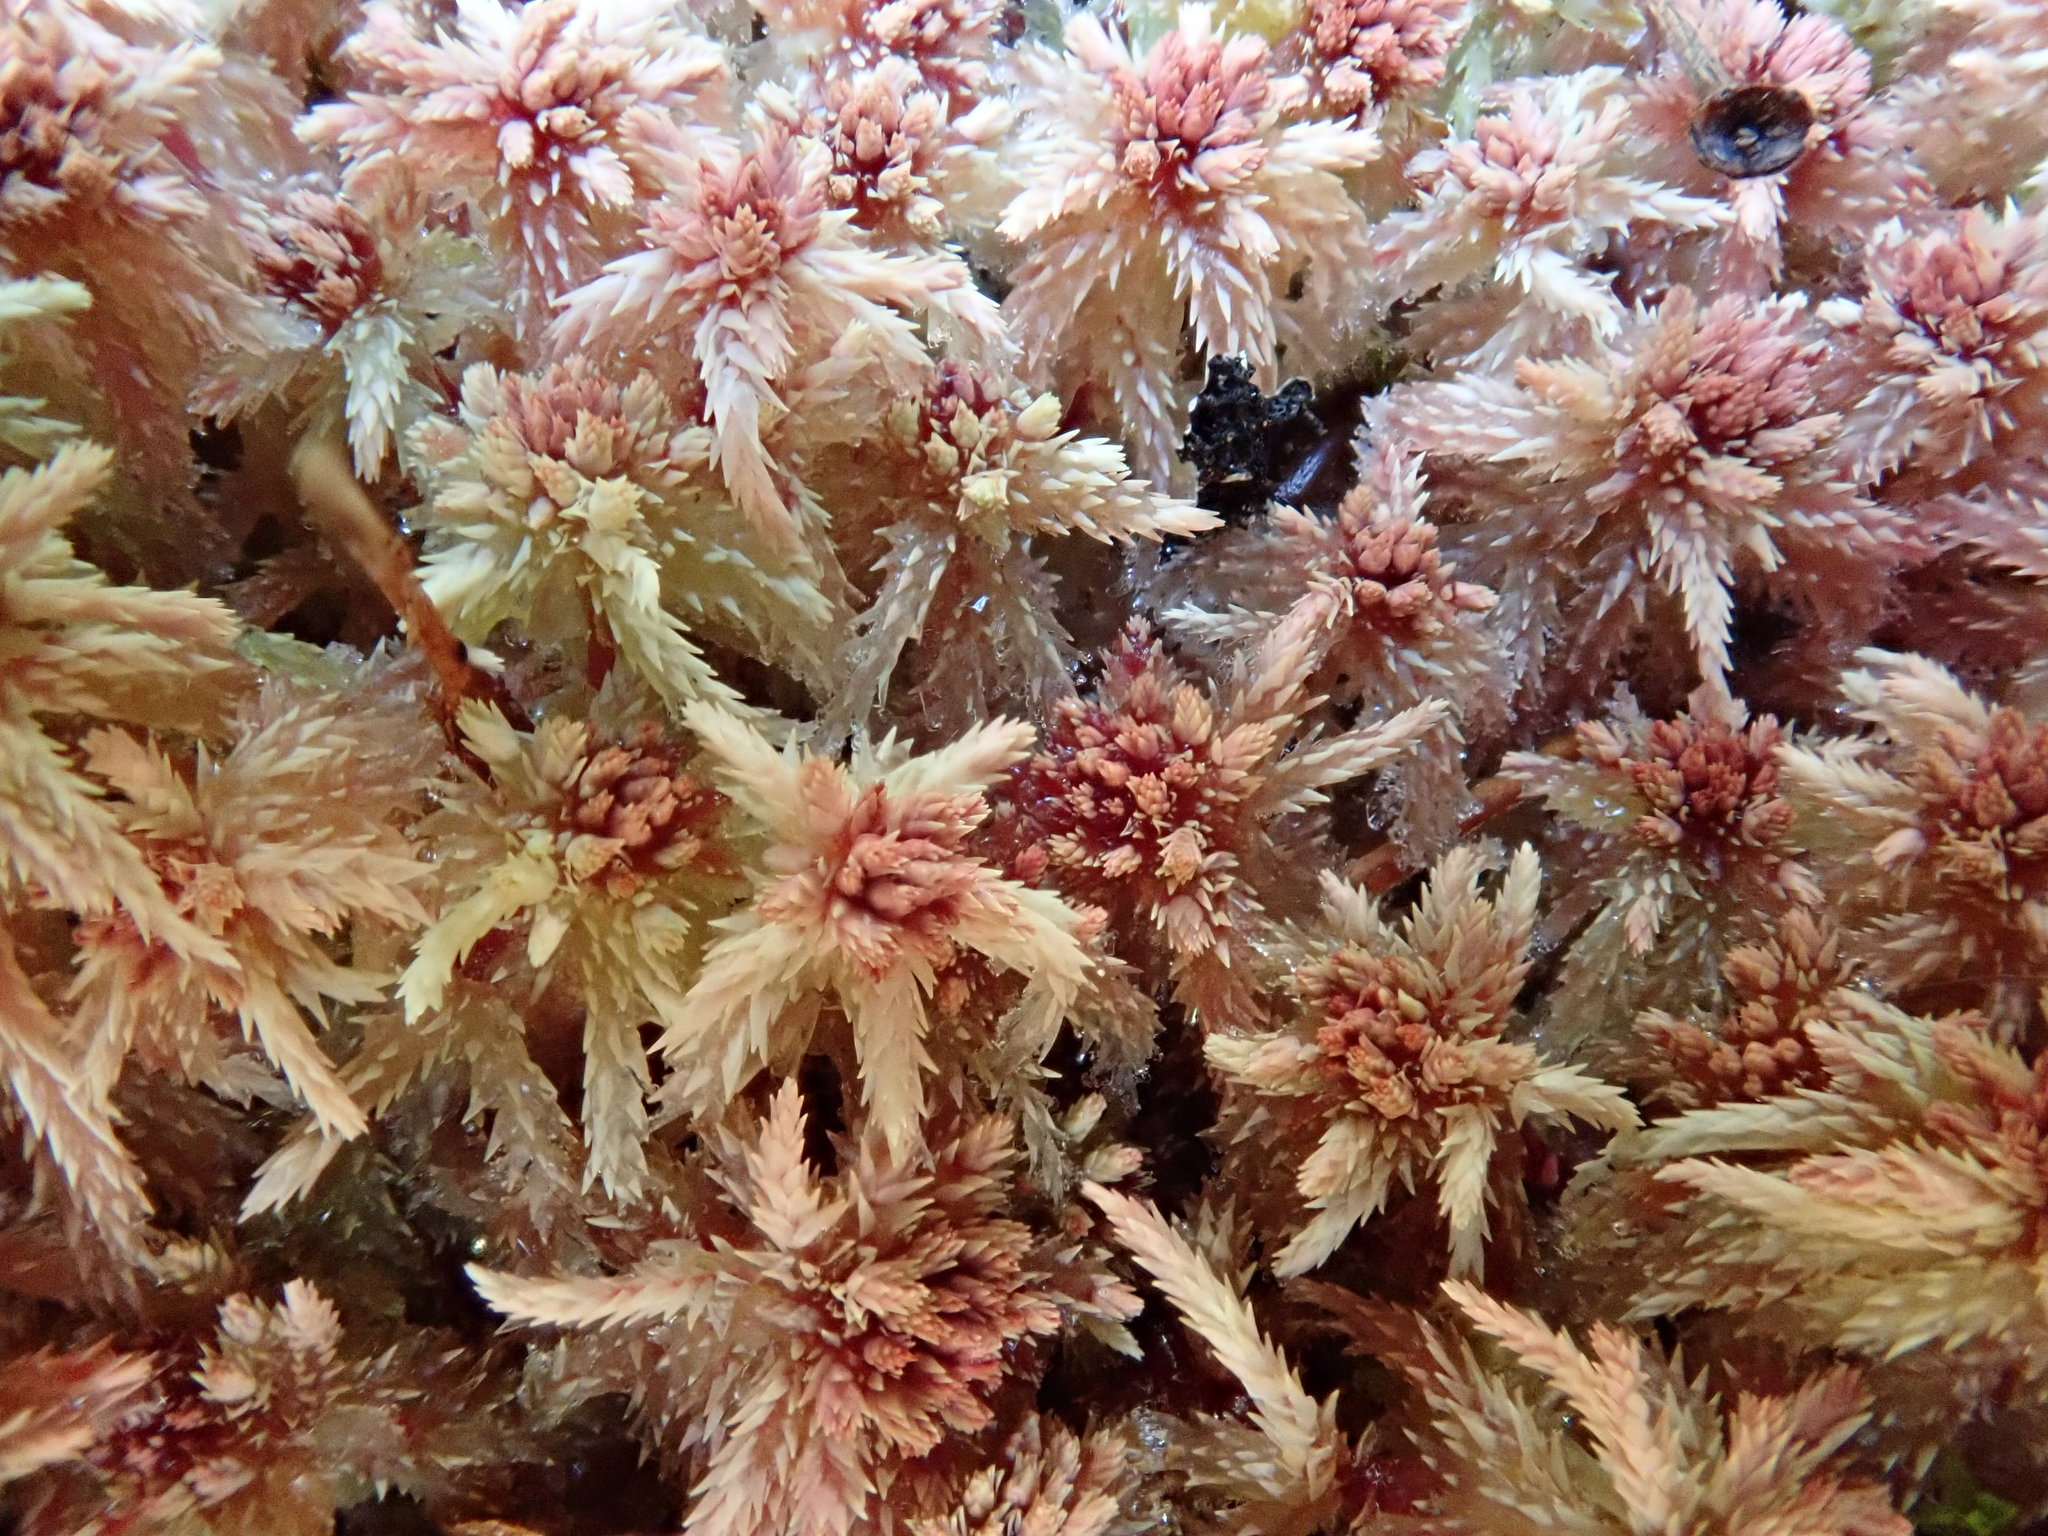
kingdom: Plantae
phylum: Bryophyta
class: Sphagnopsida
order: Sphagnales
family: Sphagnaceae
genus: Sphagnum
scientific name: Sphagnum
